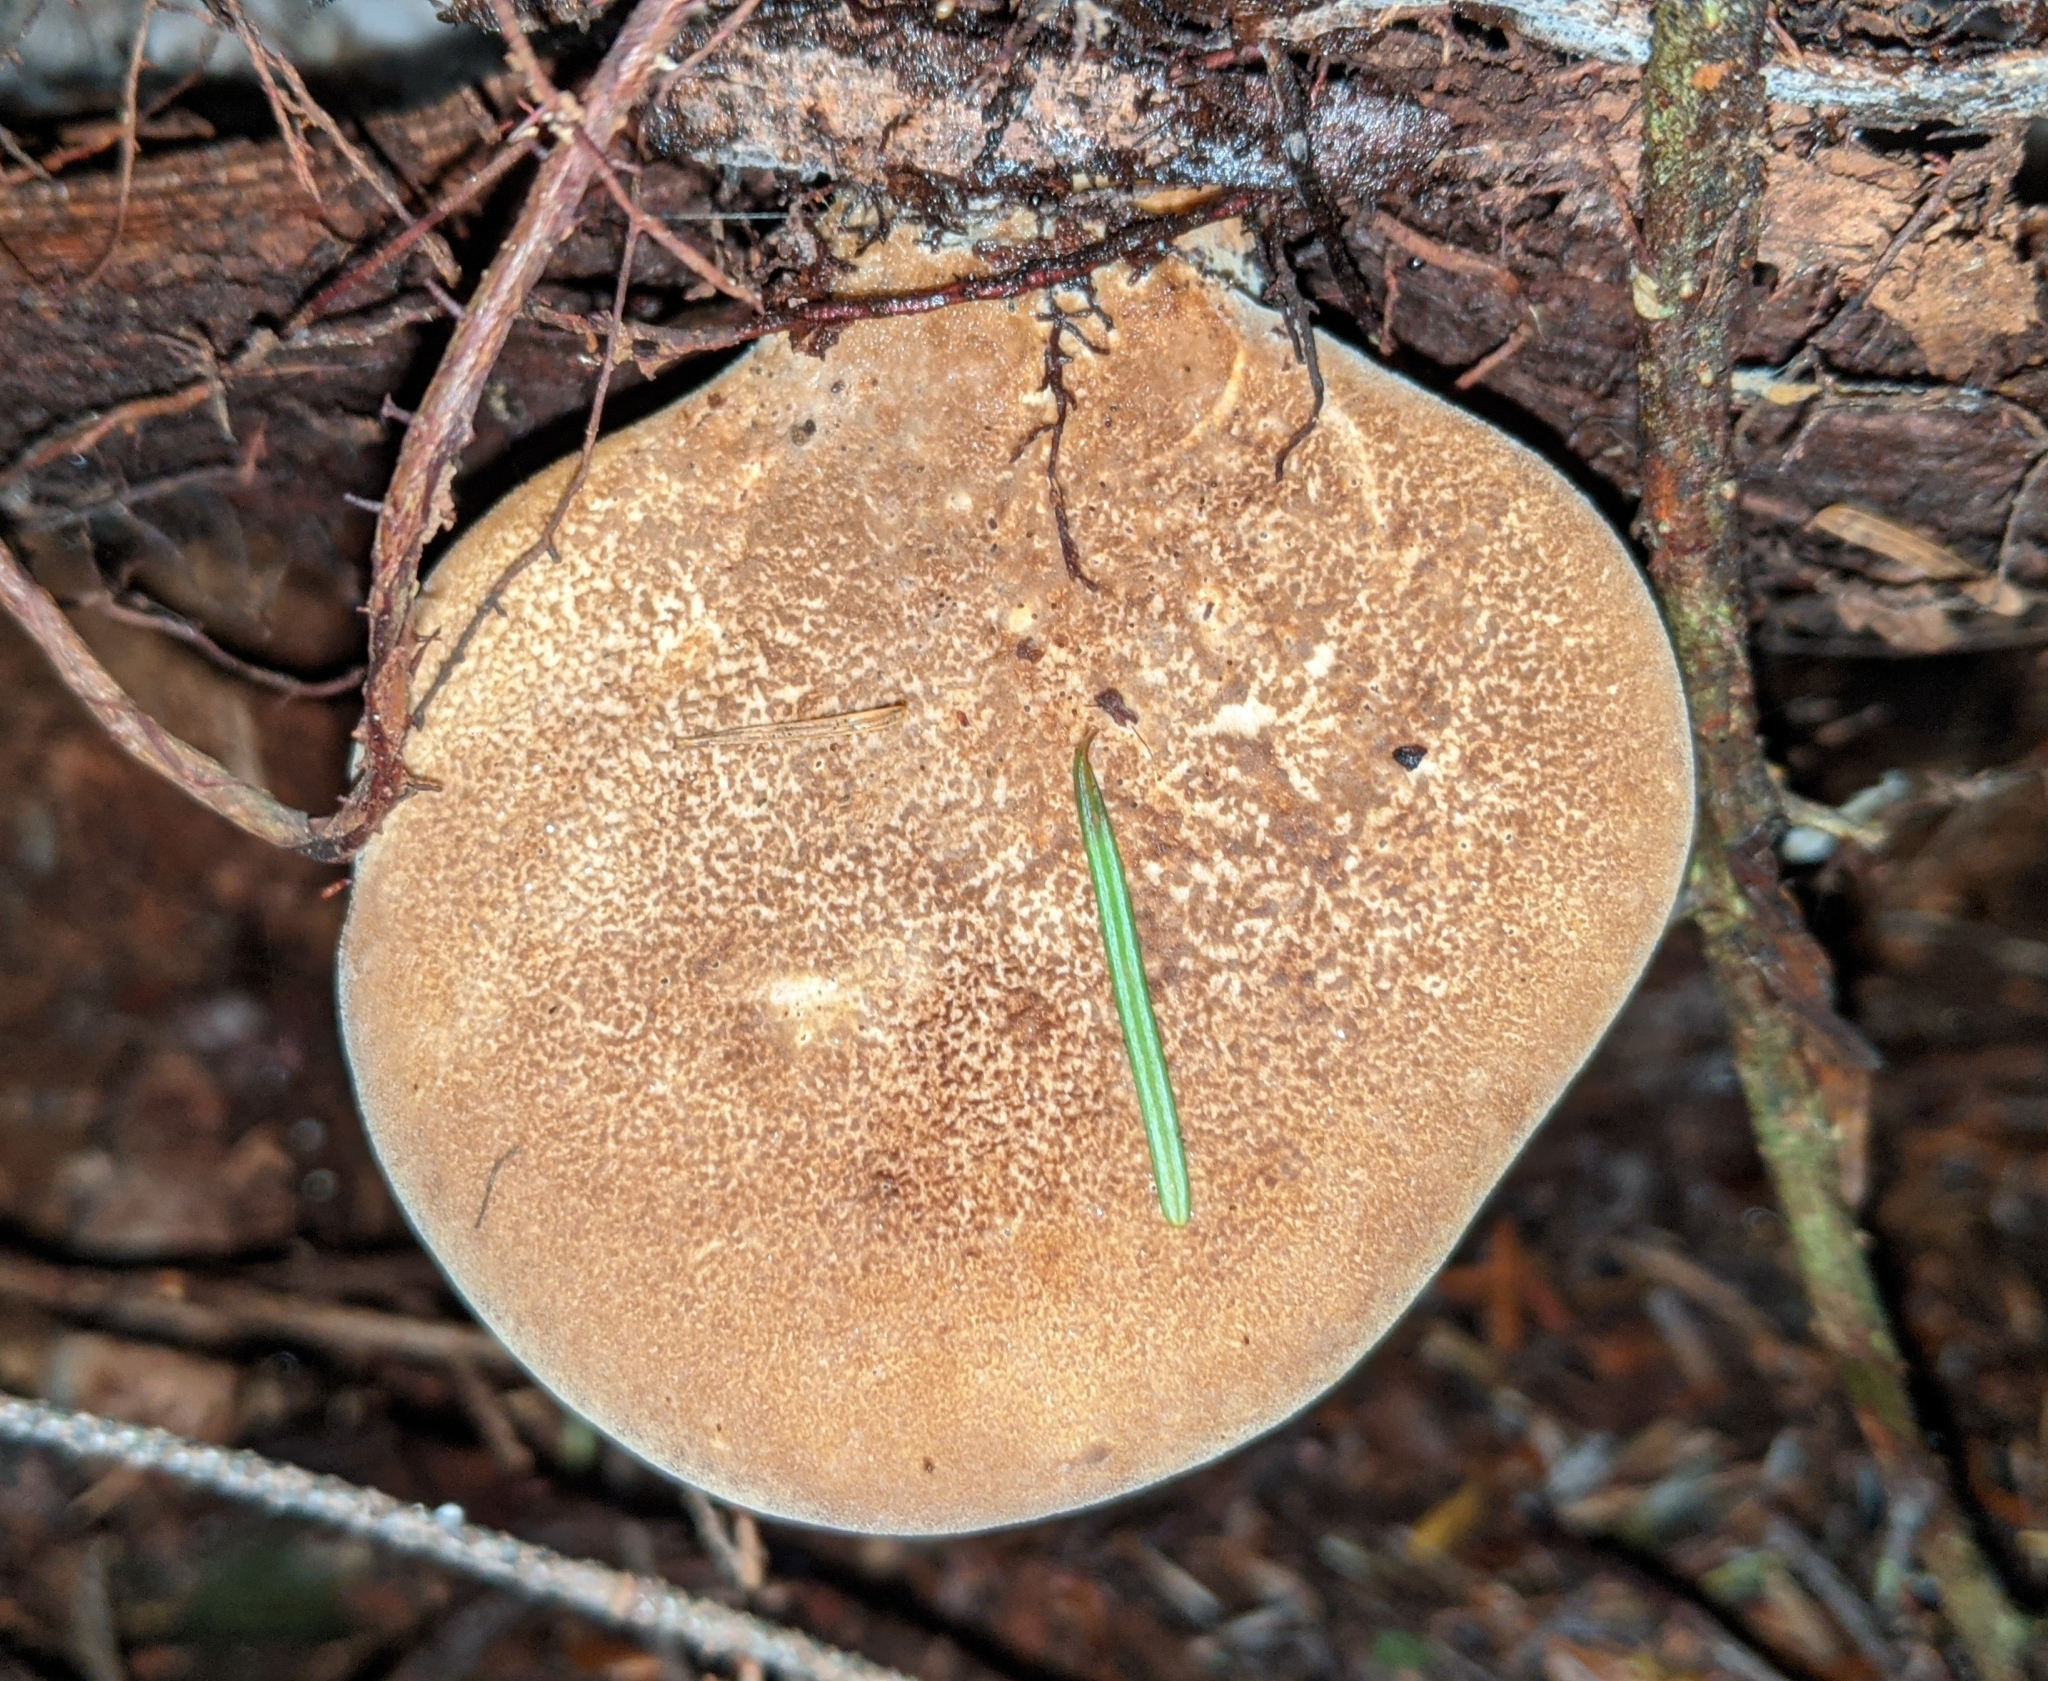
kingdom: Fungi
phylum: Basidiomycota
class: Agaricomycetes
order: Boletales
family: Tapinellaceae
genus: Tapinella
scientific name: Tapinella atrotomentosa
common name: Velvet rollrim
